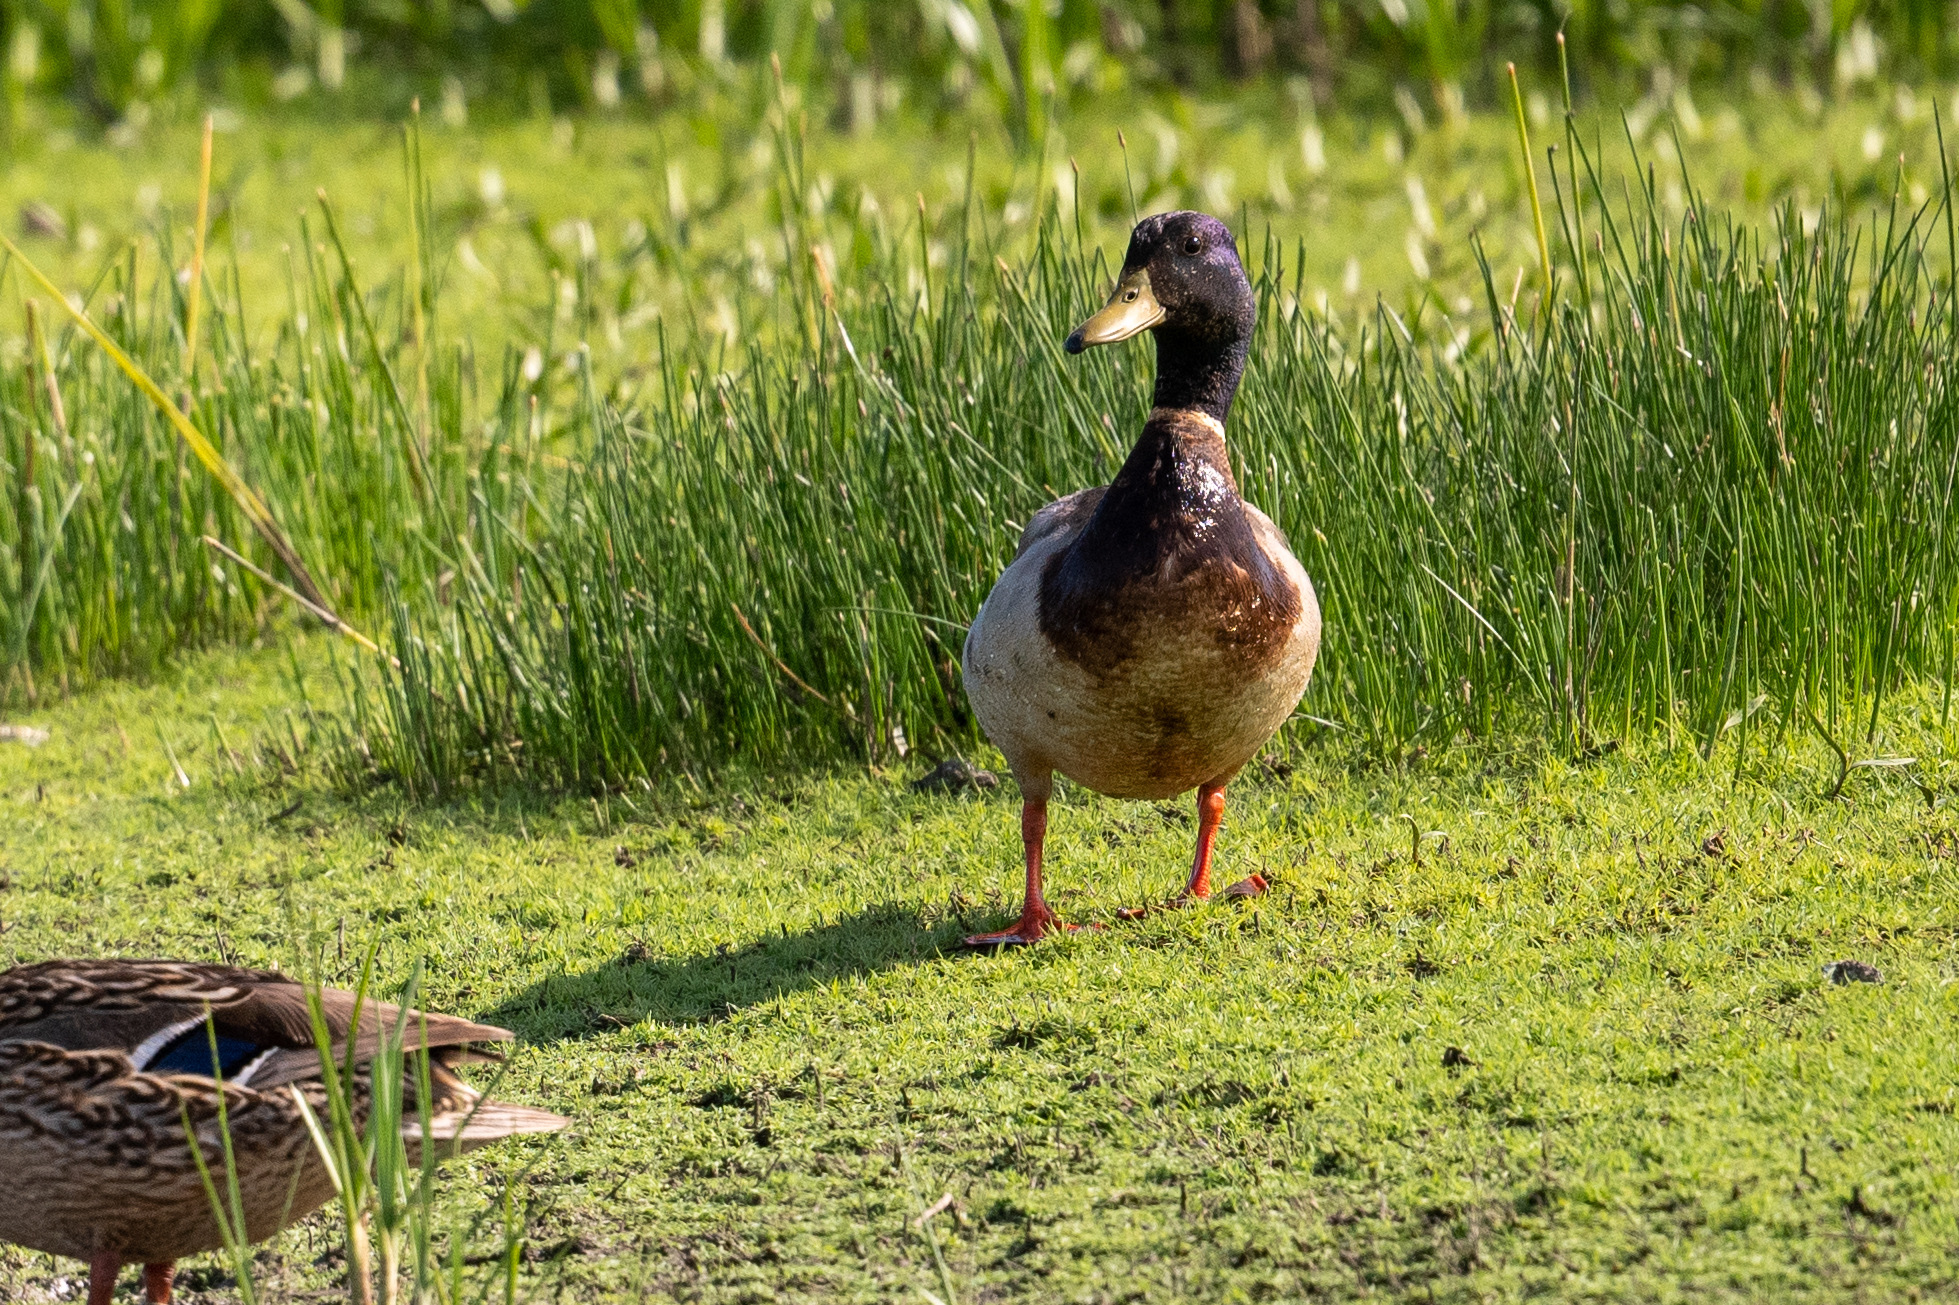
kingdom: Animalia
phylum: Chordata
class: Aves
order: Anseriformes
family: Anatidae
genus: Anas
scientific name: Anas platyrhynchos
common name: Mallard
